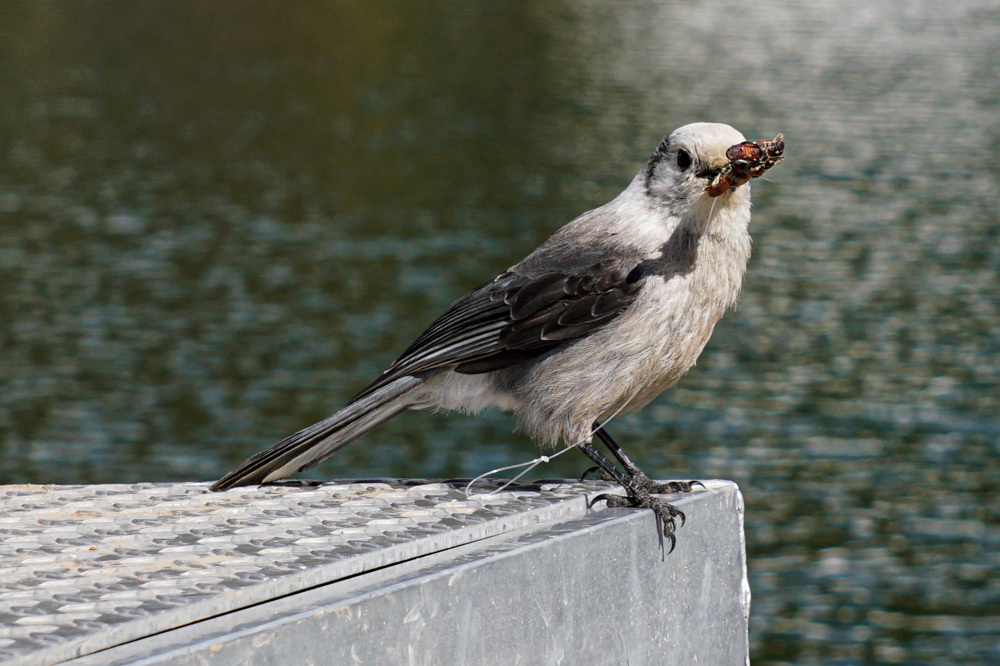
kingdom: Animalia
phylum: Chordata
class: Aves
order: Passeriformes
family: Corvidae
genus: Perisoreus
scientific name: Perisoreus canadensis
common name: Gray jay
